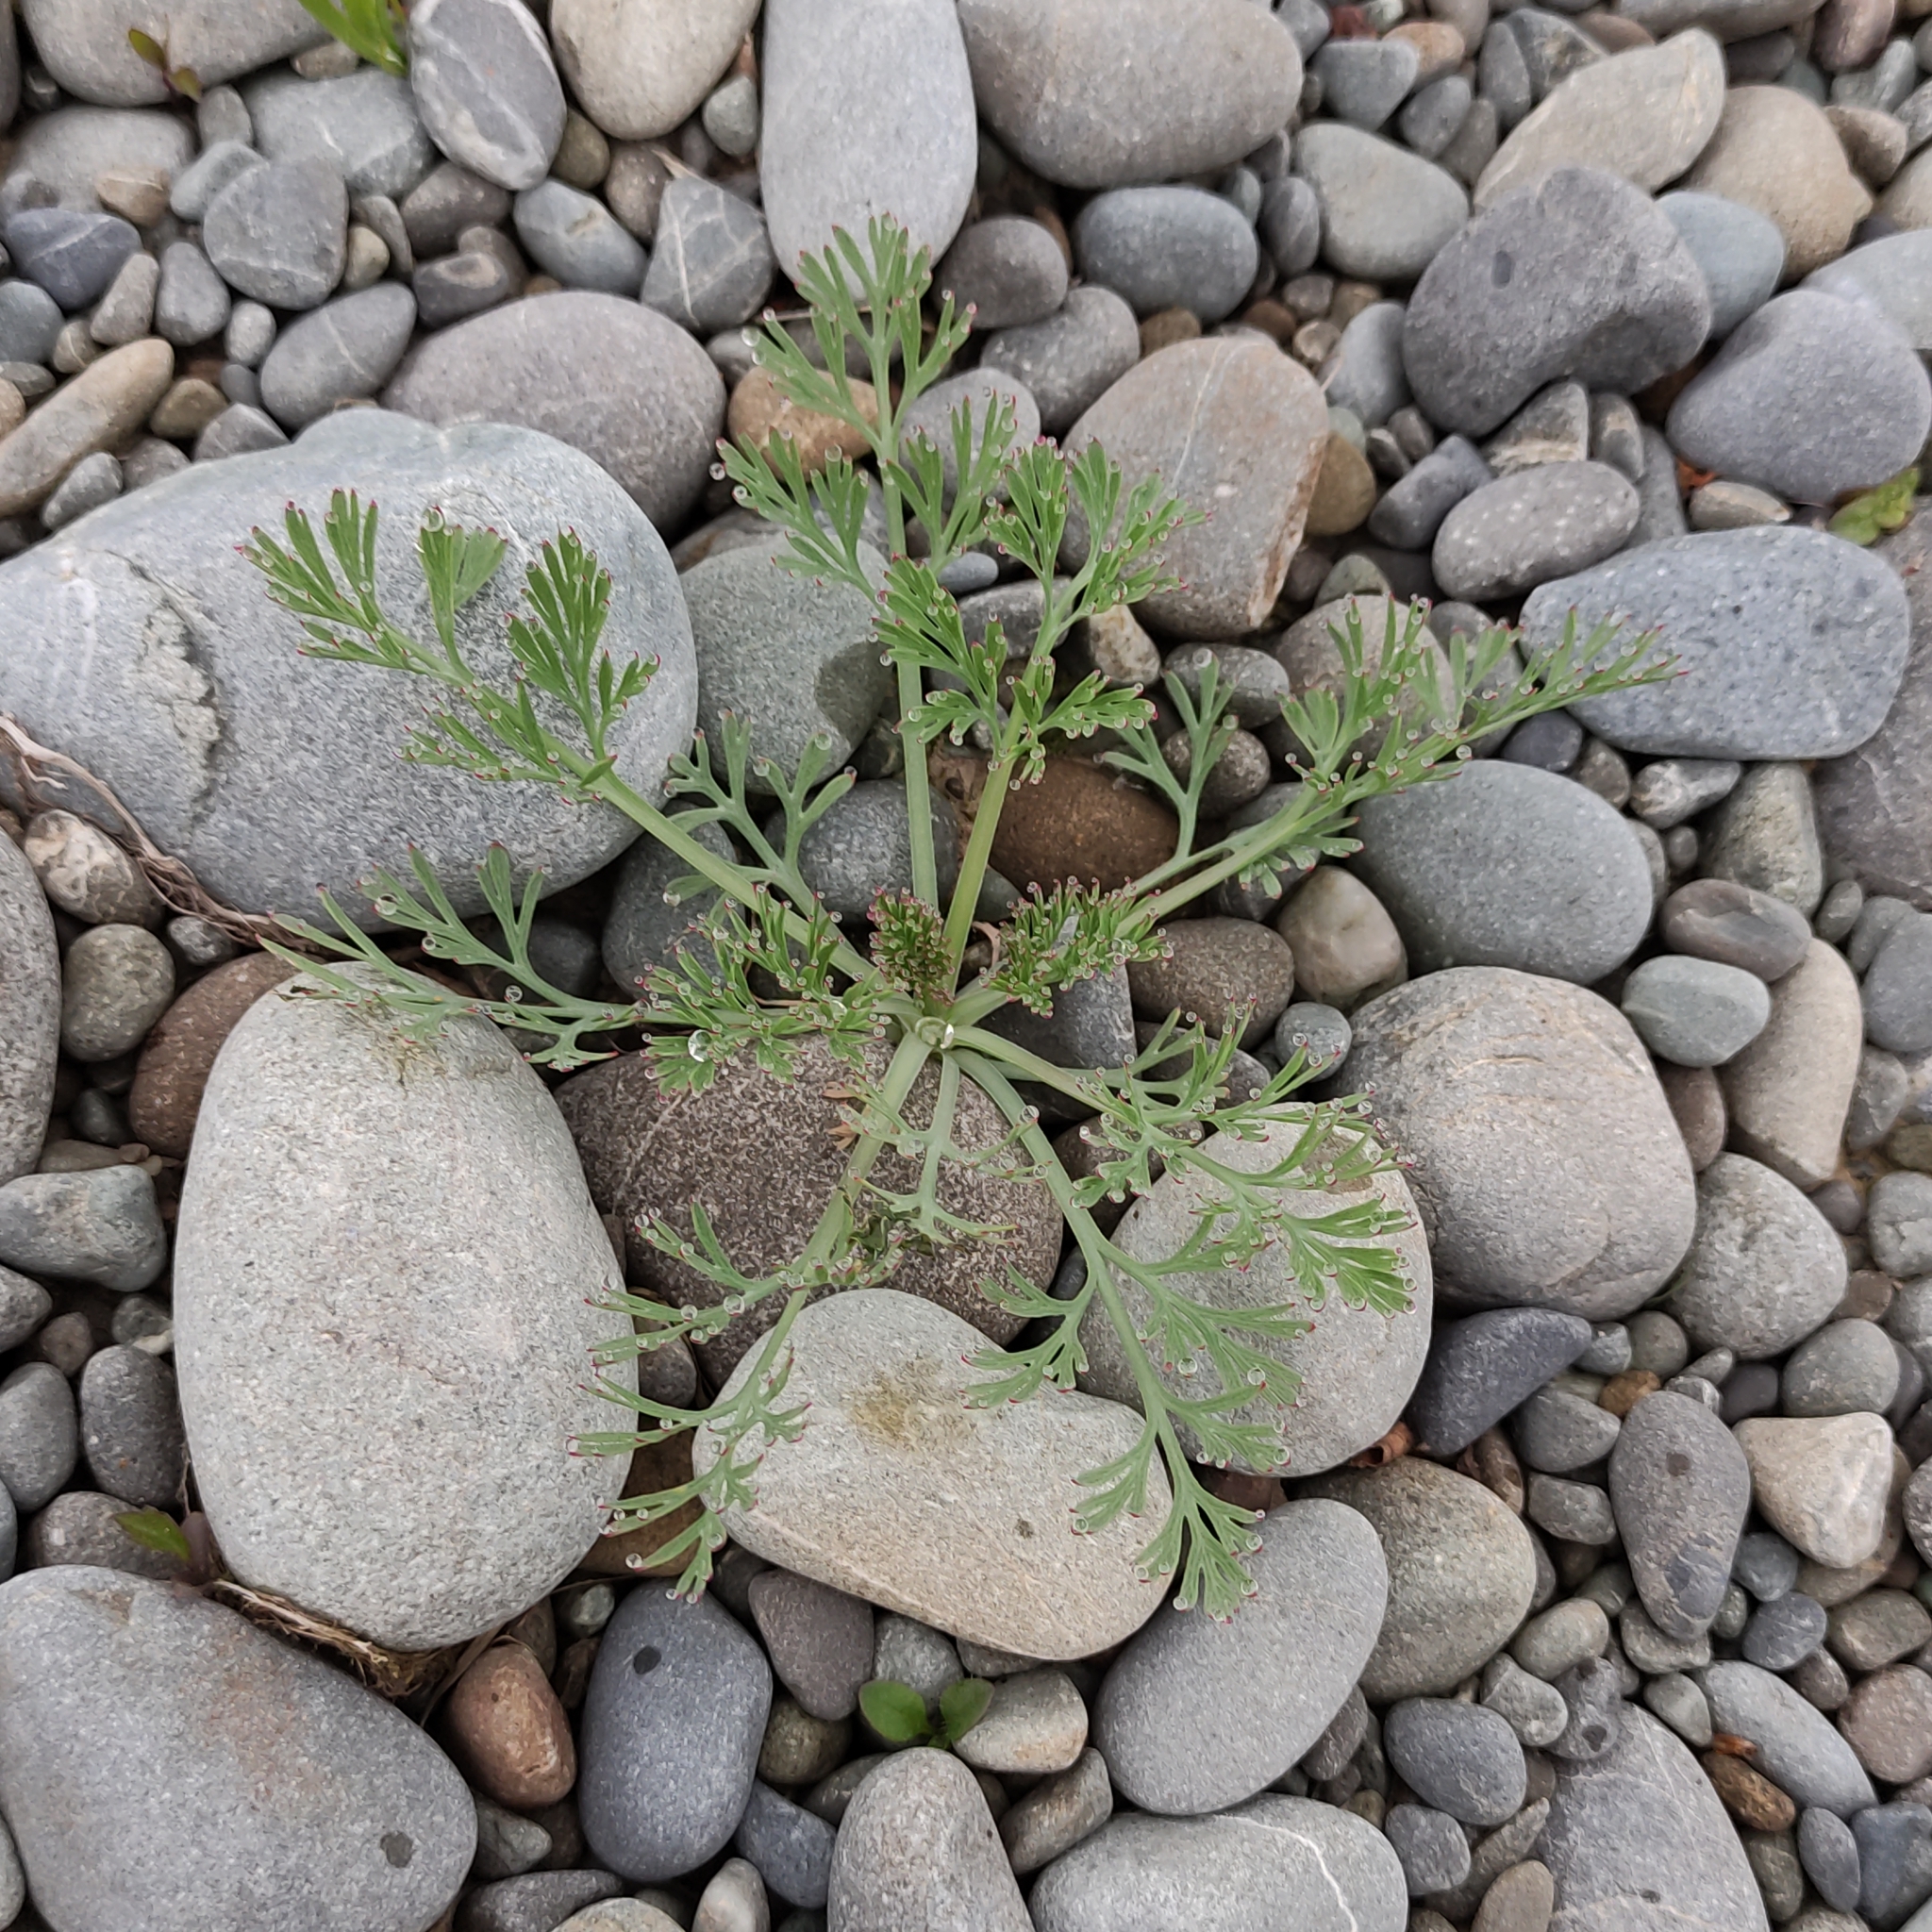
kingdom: Plantae
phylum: Tracheophyta
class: Magnoliopsida
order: Ranunculales
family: Papaveraceae
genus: Eschscholzia
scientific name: Eschscholzia californica
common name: California poppy
